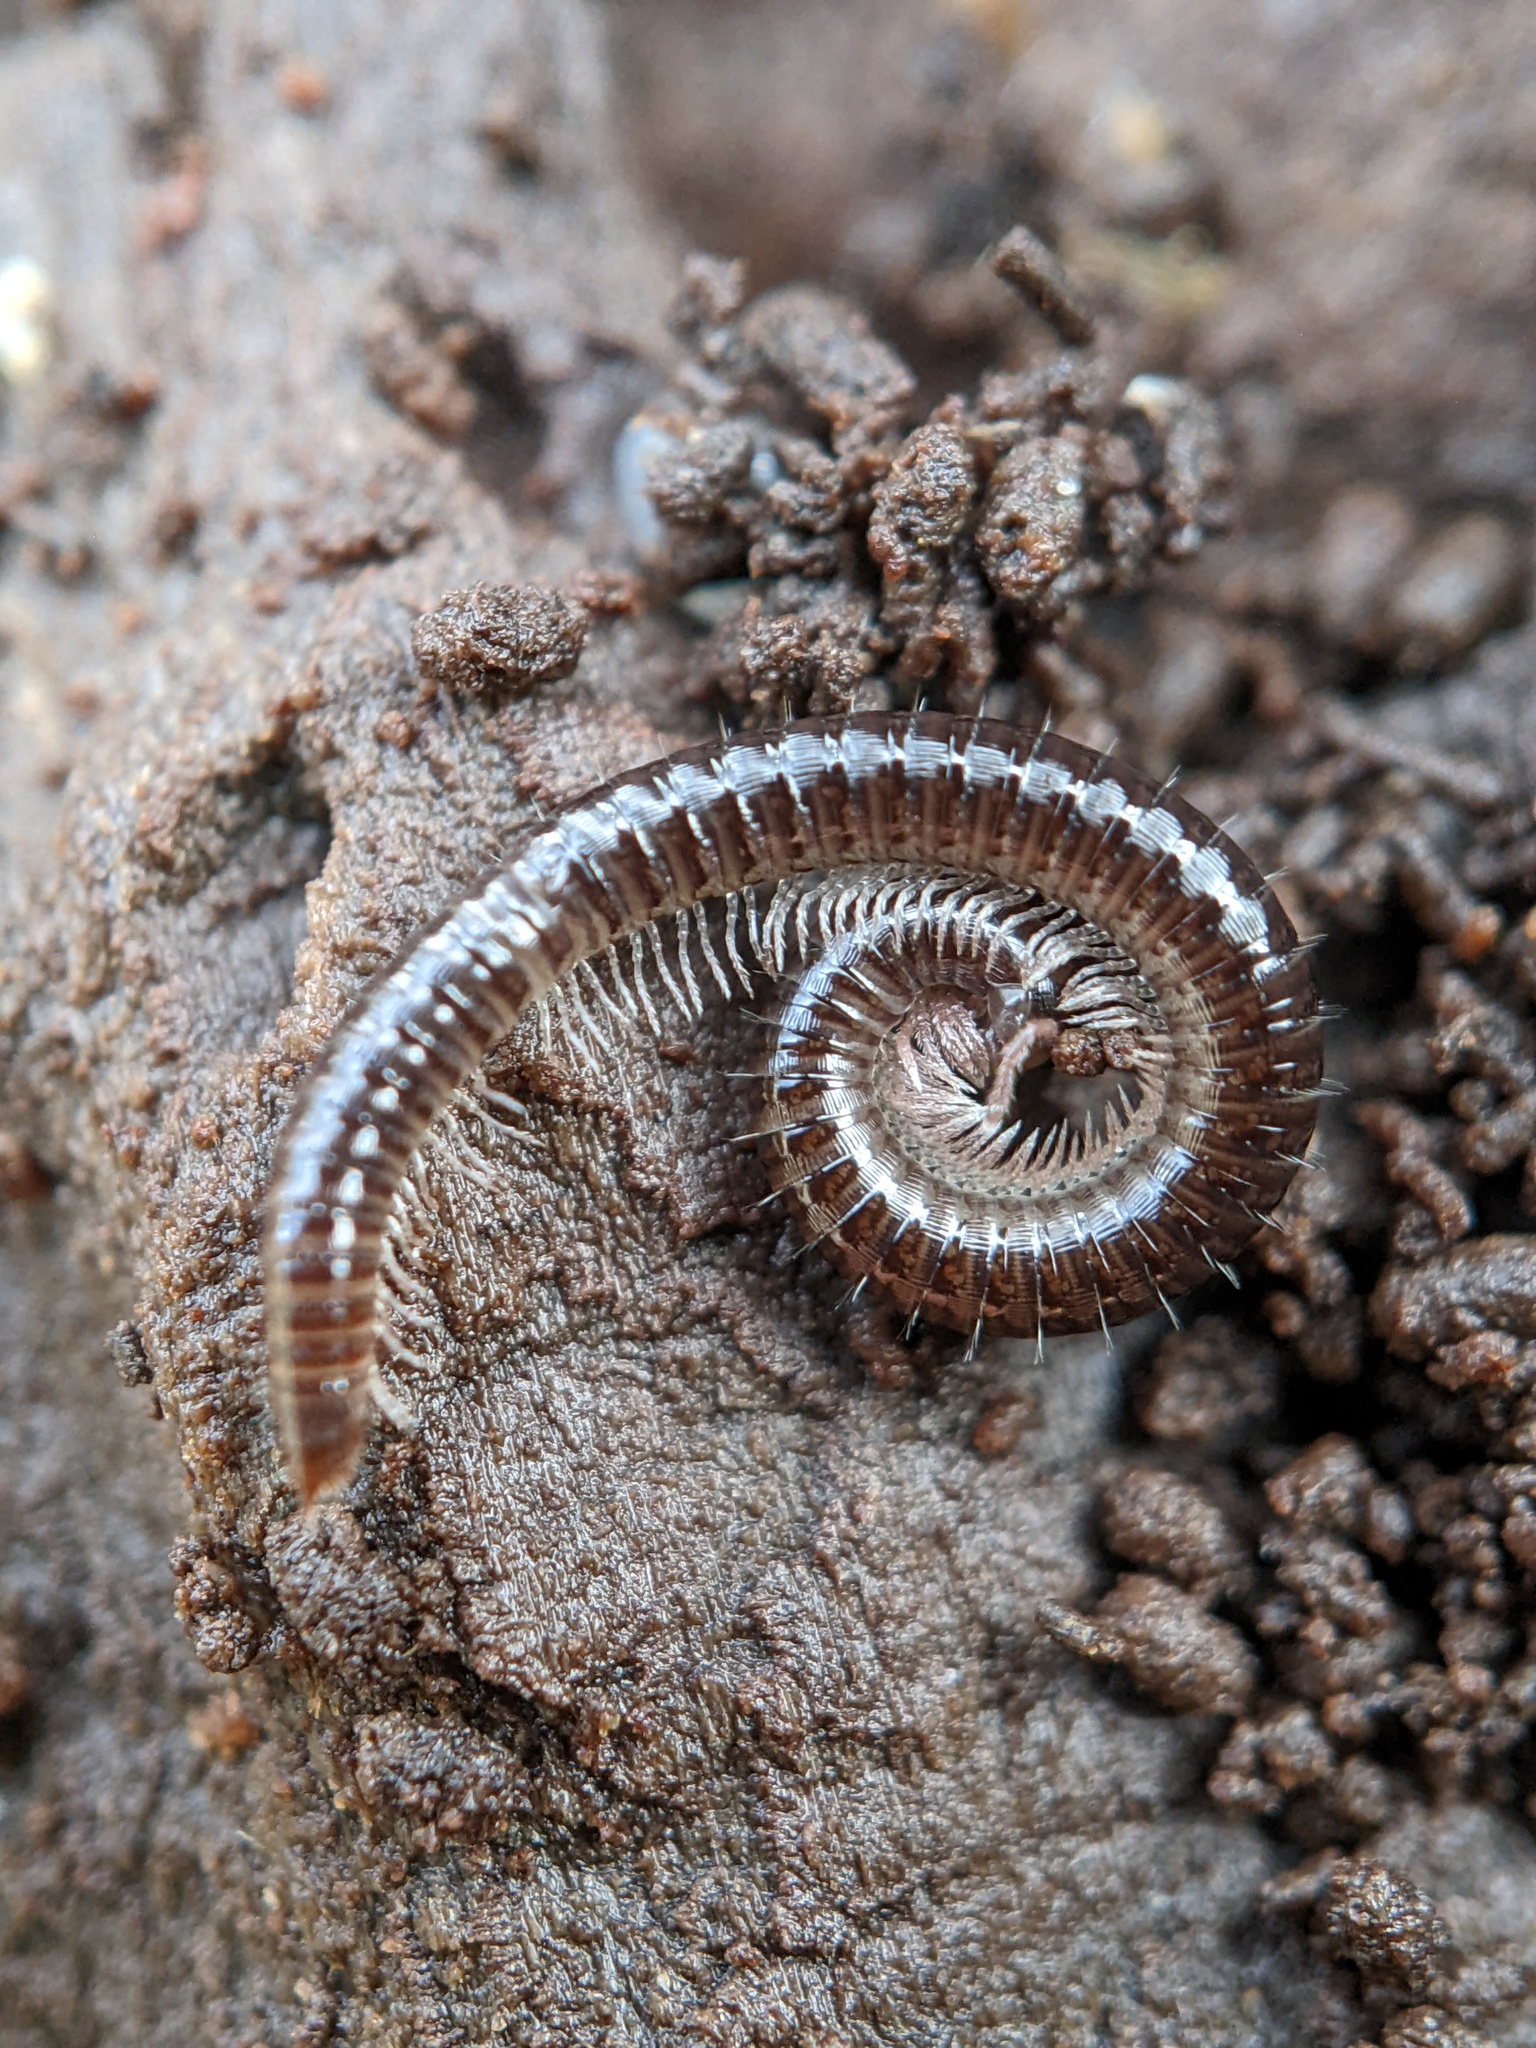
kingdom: Animalia
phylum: Arthropoda
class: Diplopoda
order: Julida
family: Julidae
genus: Ophyiulus
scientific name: Ophyiulus pilosus
